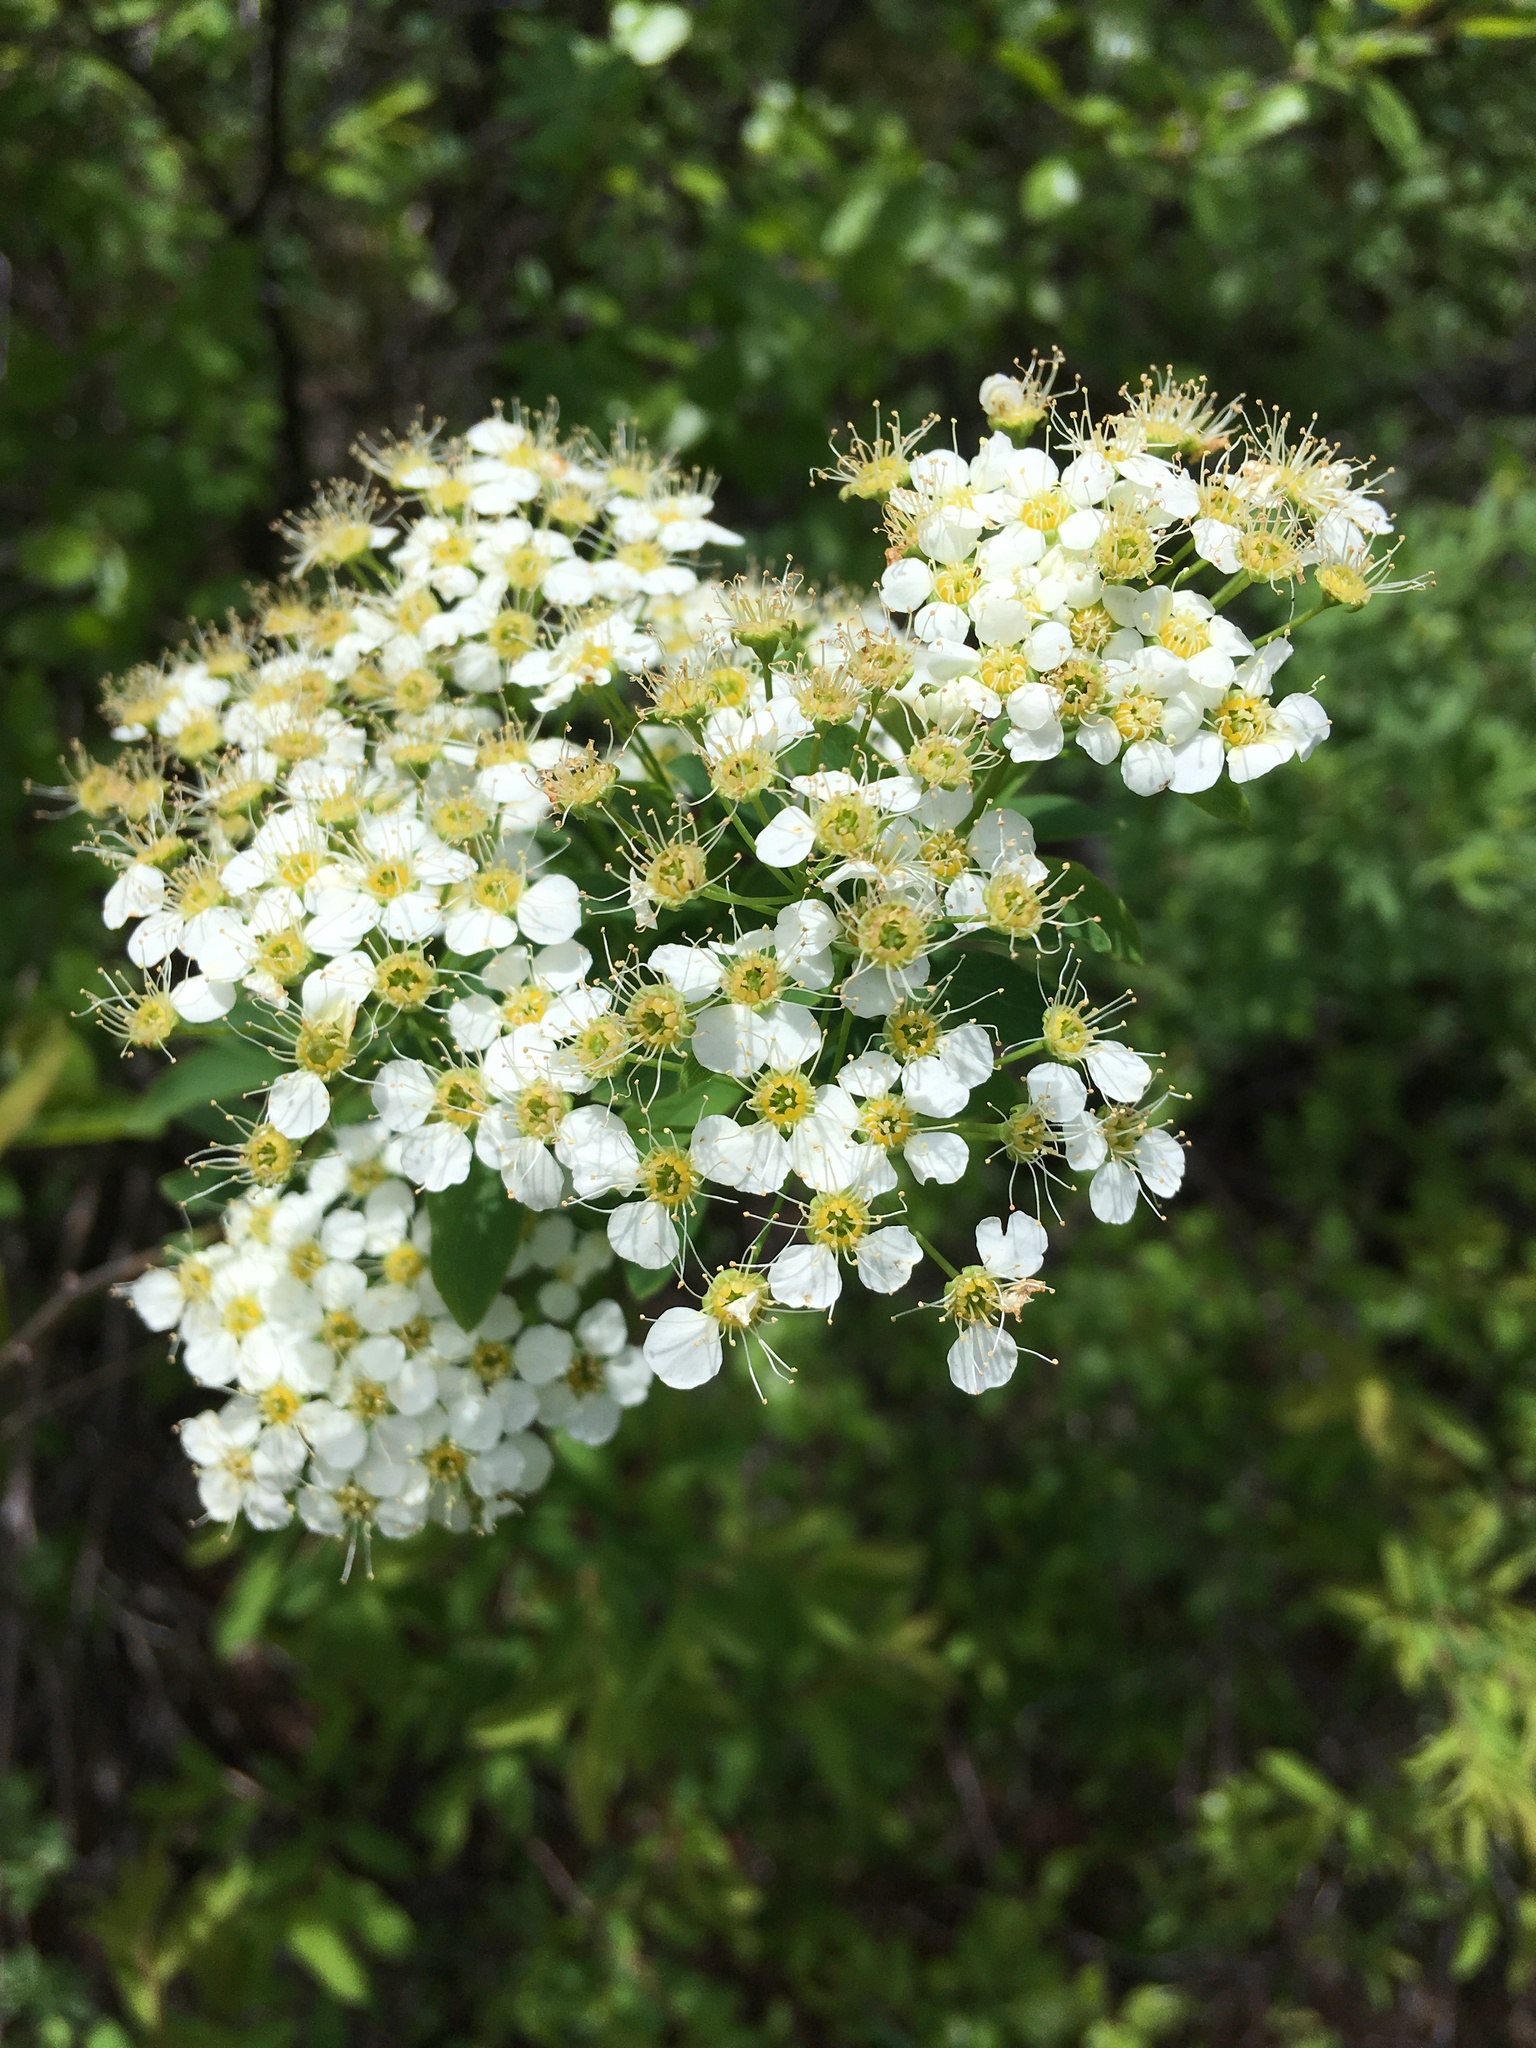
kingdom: Plantae
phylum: Tracheophyta
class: Magnoliopsida
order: Rosales
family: Rosaceae
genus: Spiraea
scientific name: Spiraea flexuosa
